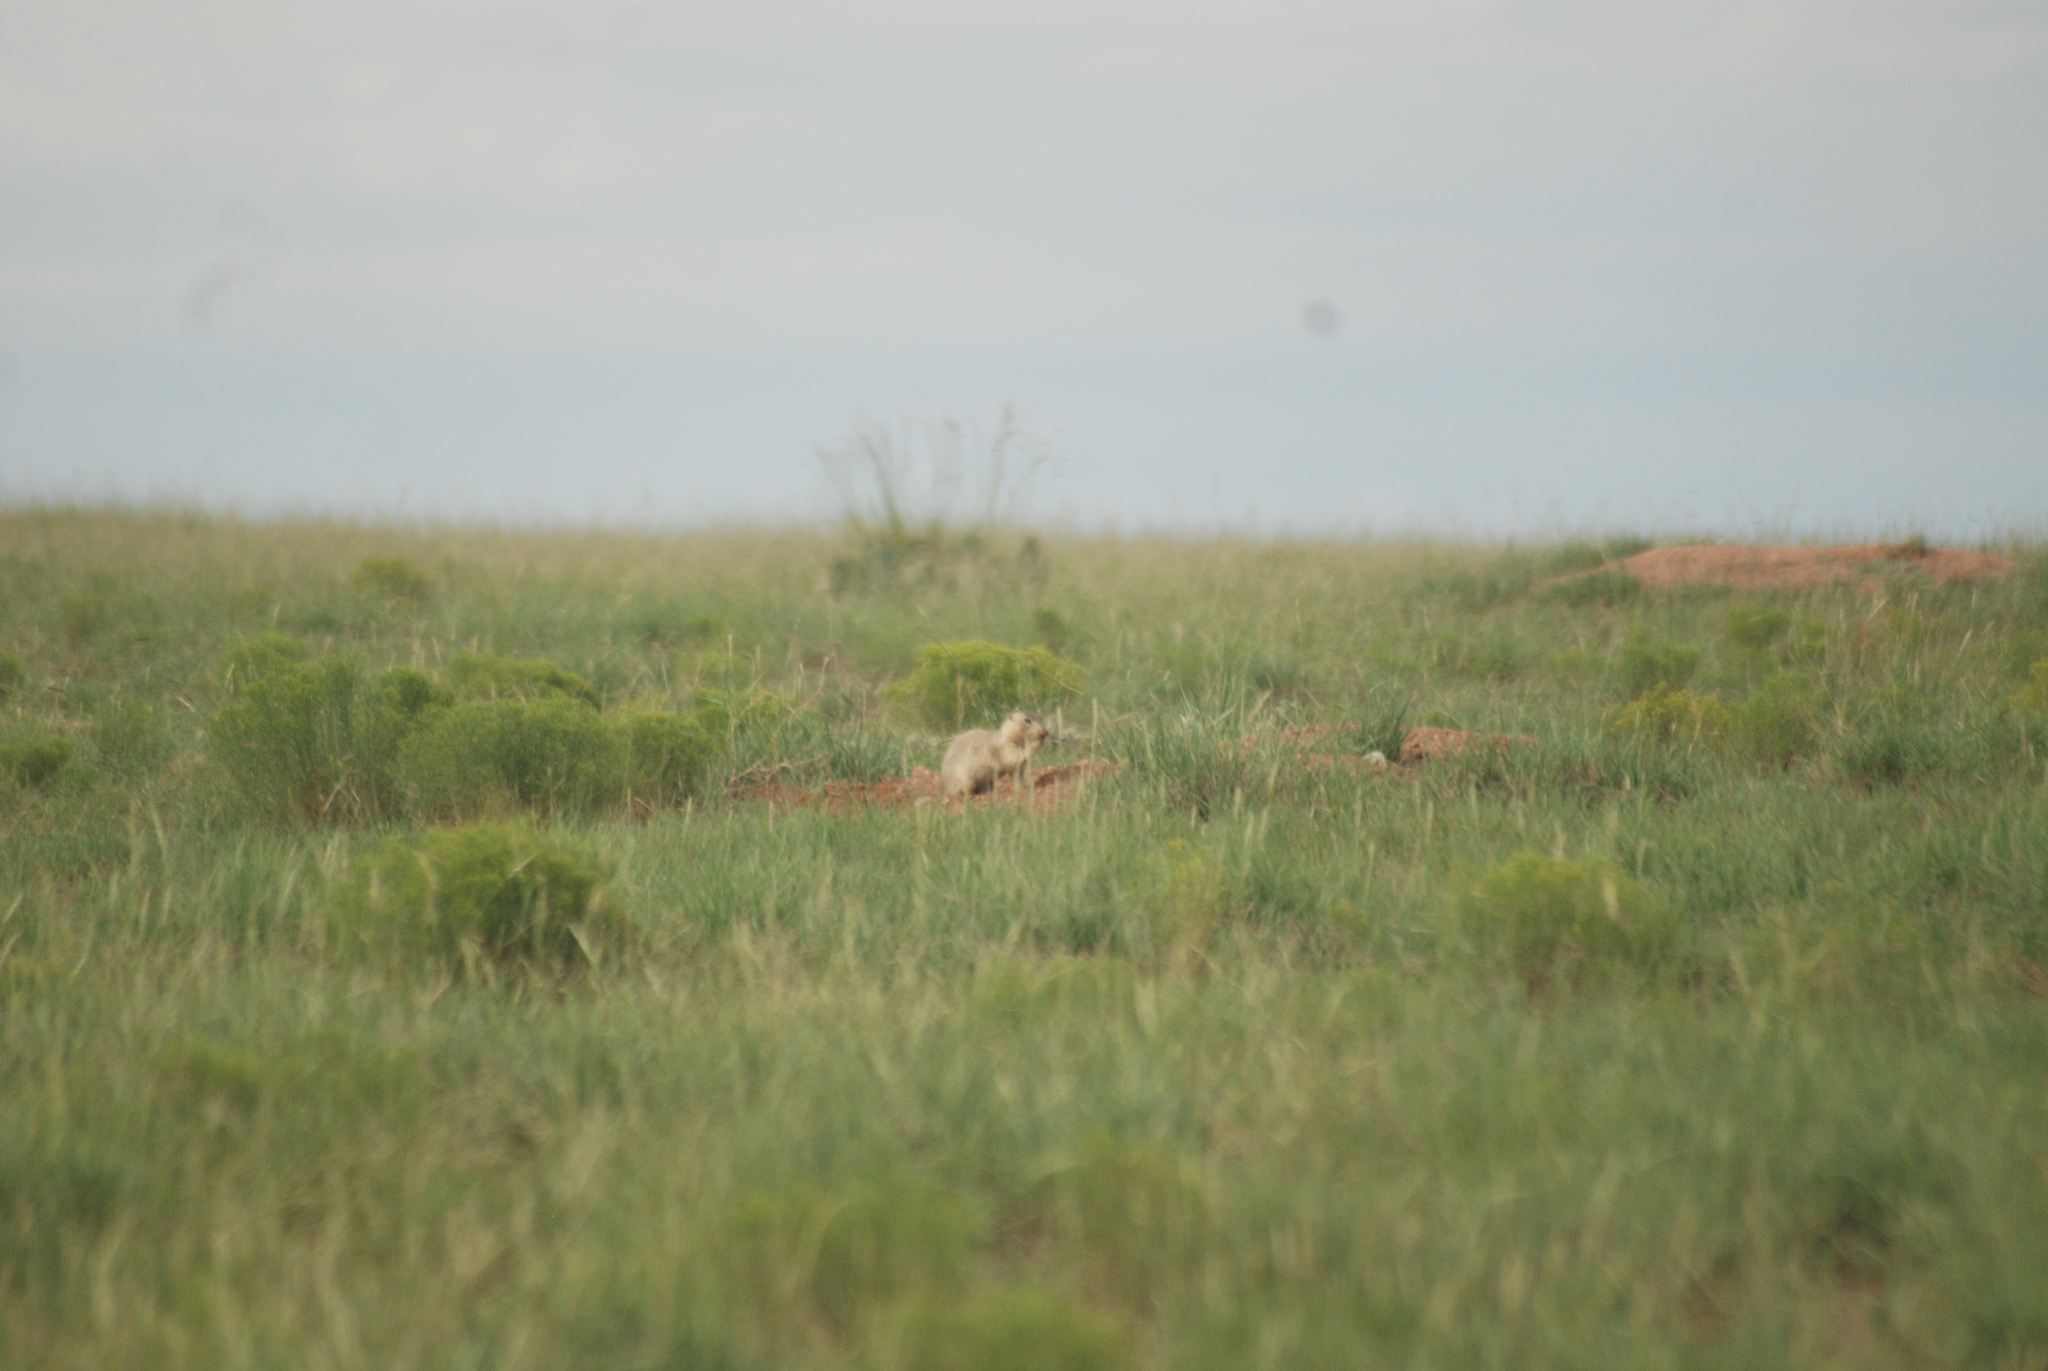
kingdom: Animalia
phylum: Chordata
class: Mammalia
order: Rodentia
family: Sciuridae
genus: Cynomys
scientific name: Cynomys gunnisoni
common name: Gunnison's prairie dog
